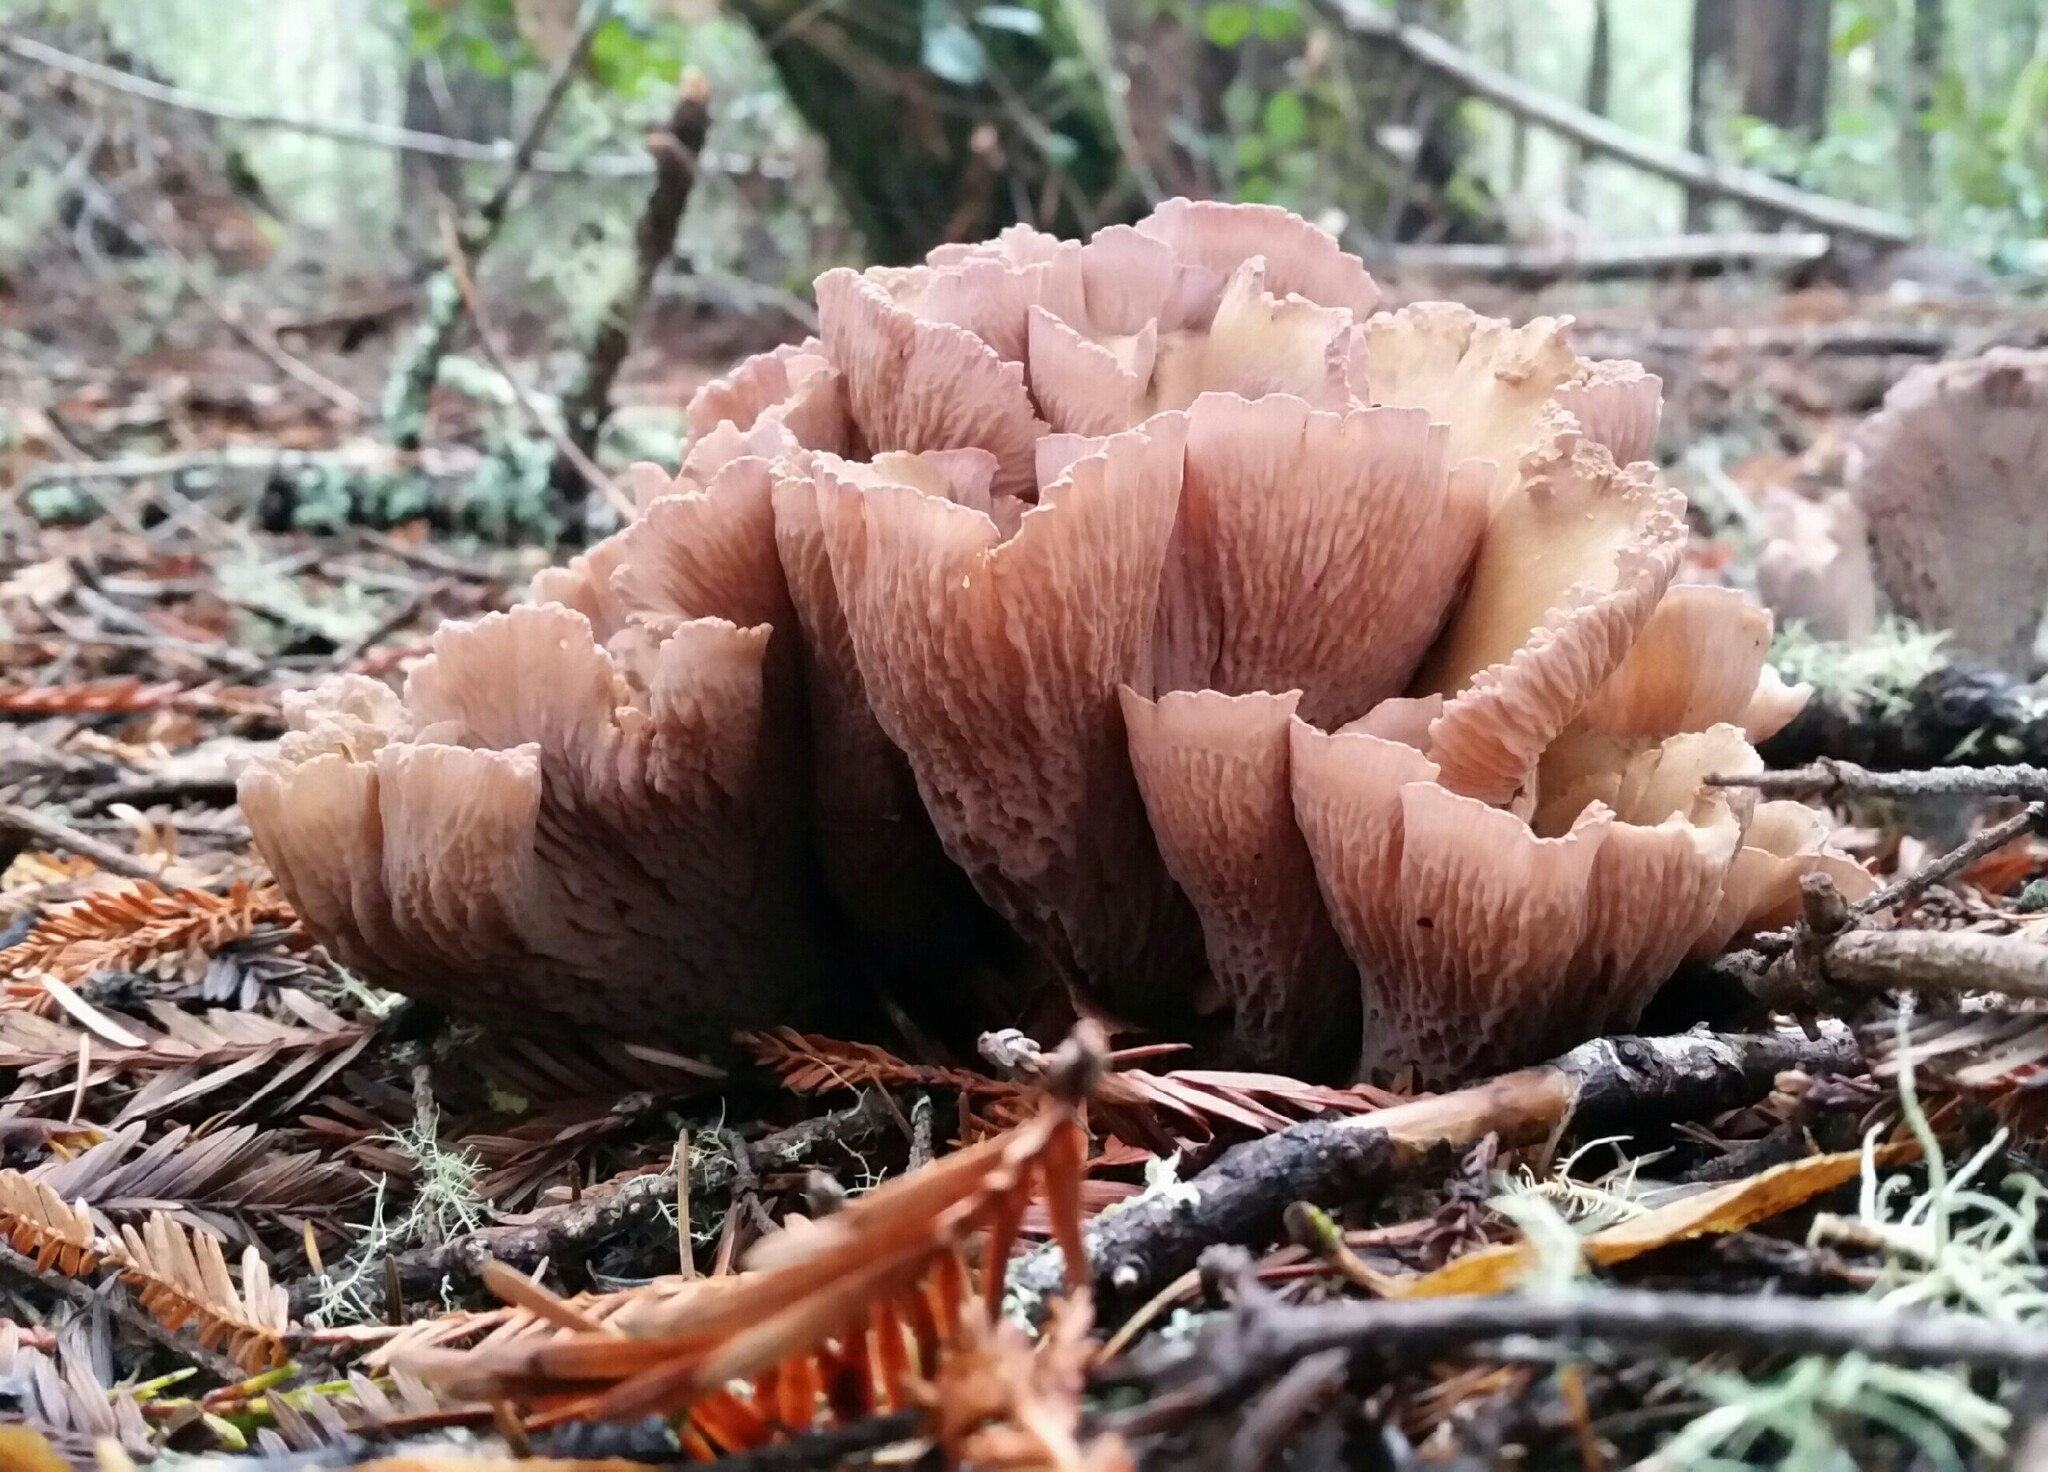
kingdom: Fungi
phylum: Basidiomycota
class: Agaricomycetes
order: Gomphales
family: Gomphaceae
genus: Gomphus
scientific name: Gomphus clavatus
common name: Pig's ear
